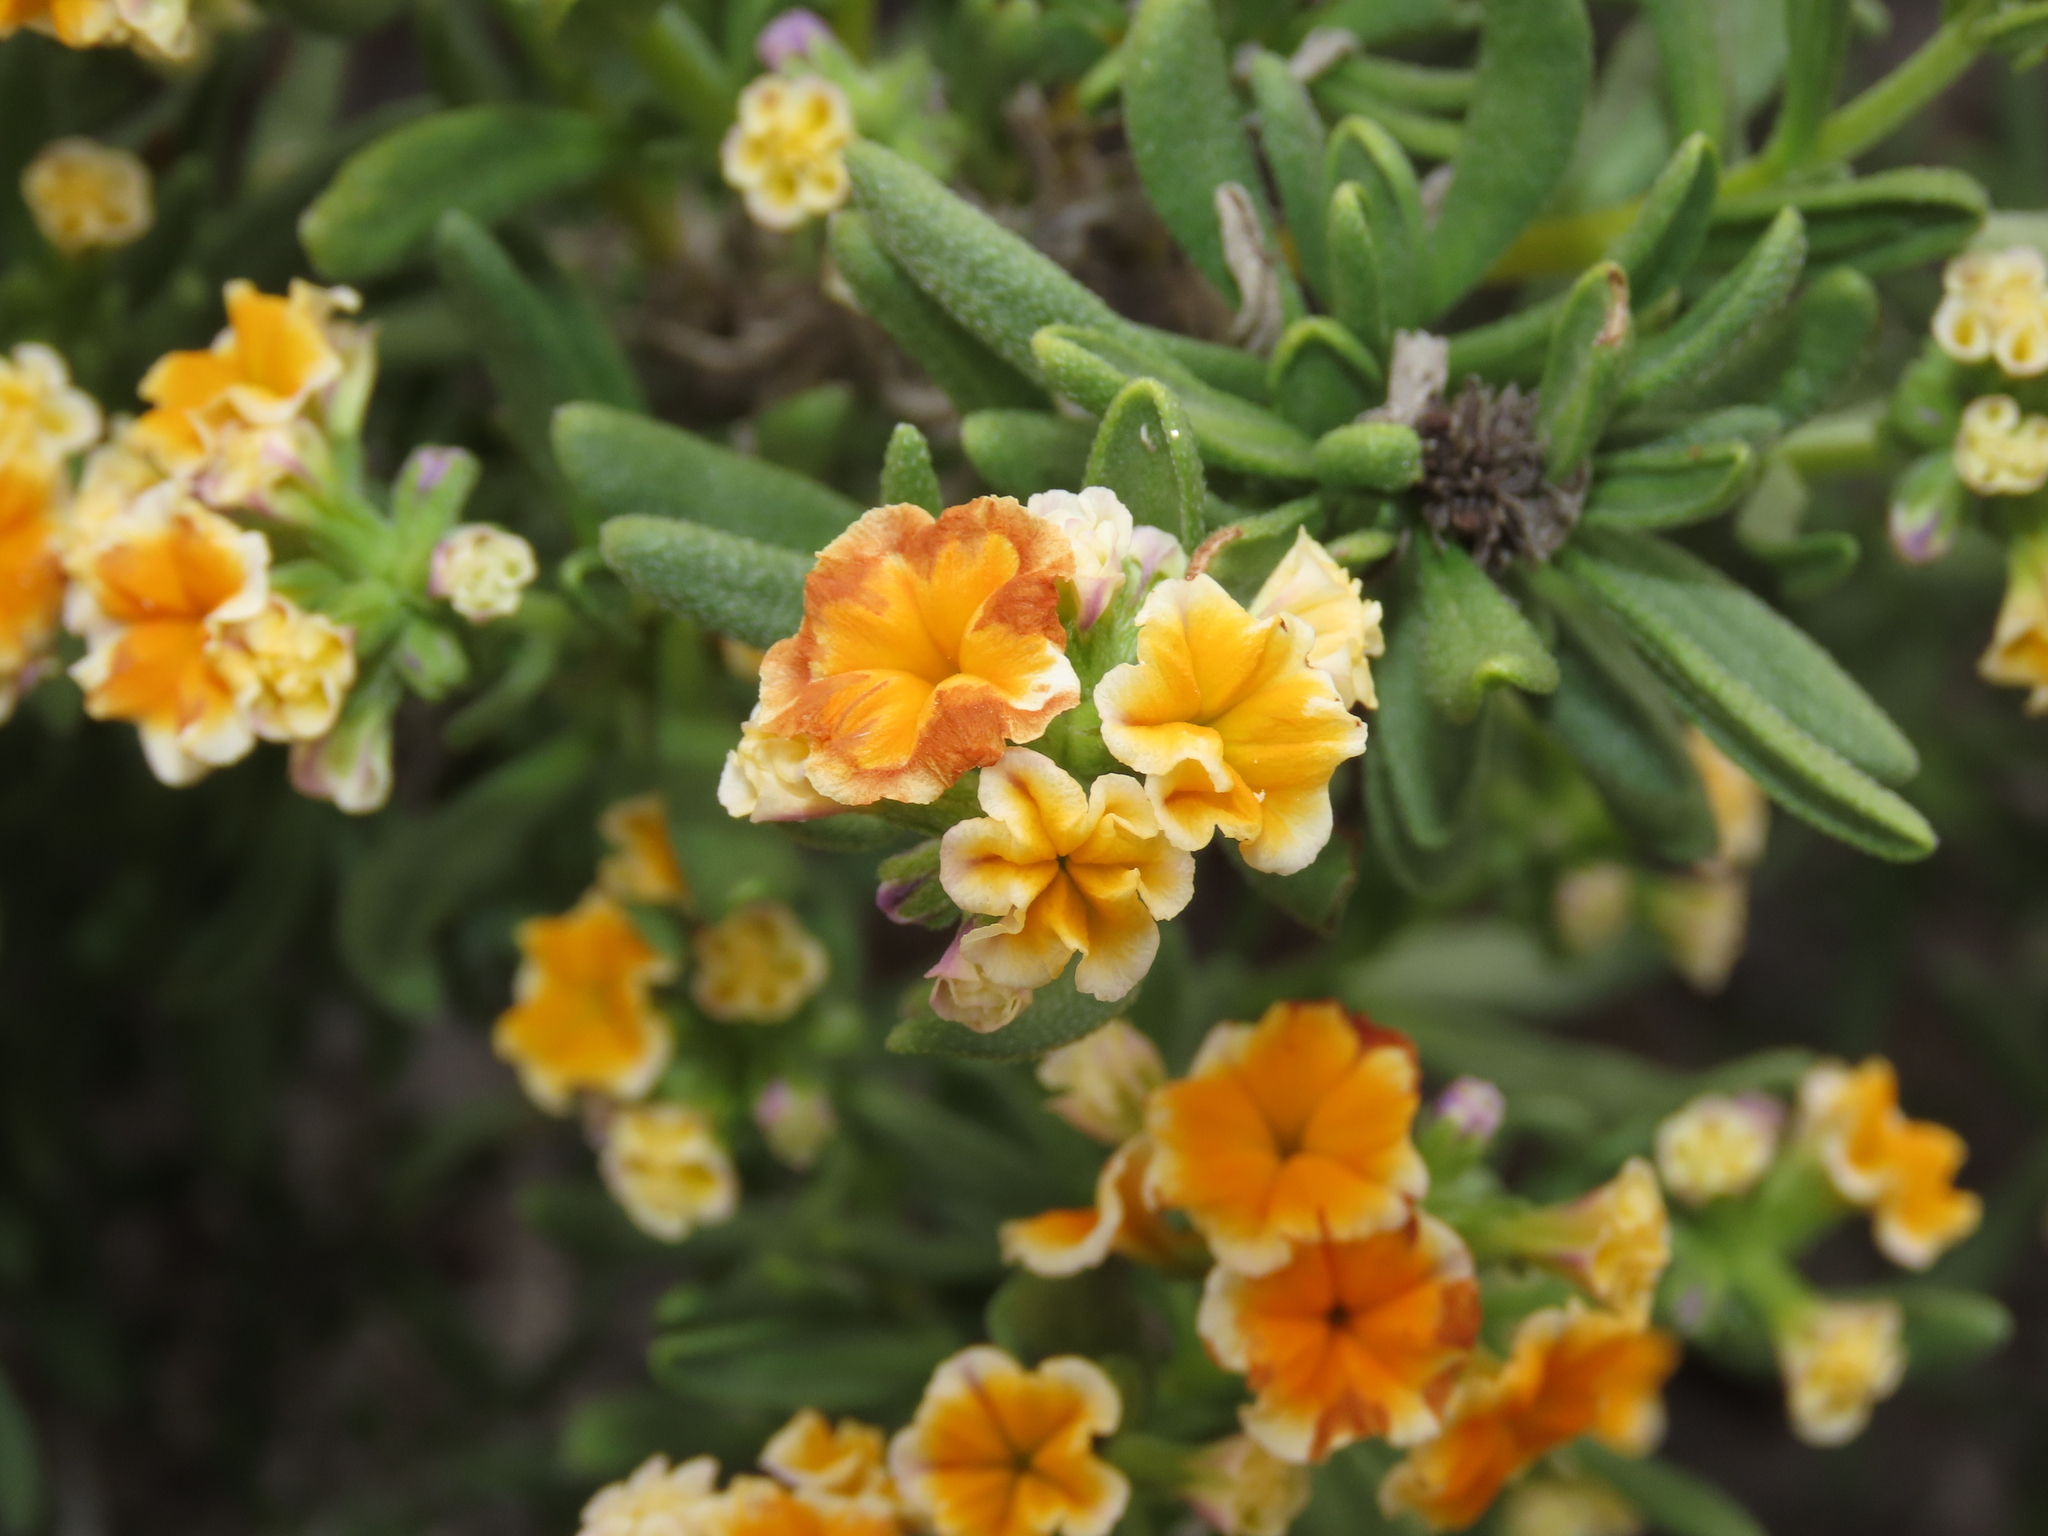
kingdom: Plantae
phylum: Tracheophyta
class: Magnoliopsida
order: Boraginales
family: Heliotropiaceae
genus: Heliotropium
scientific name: Heliotropium floridum
